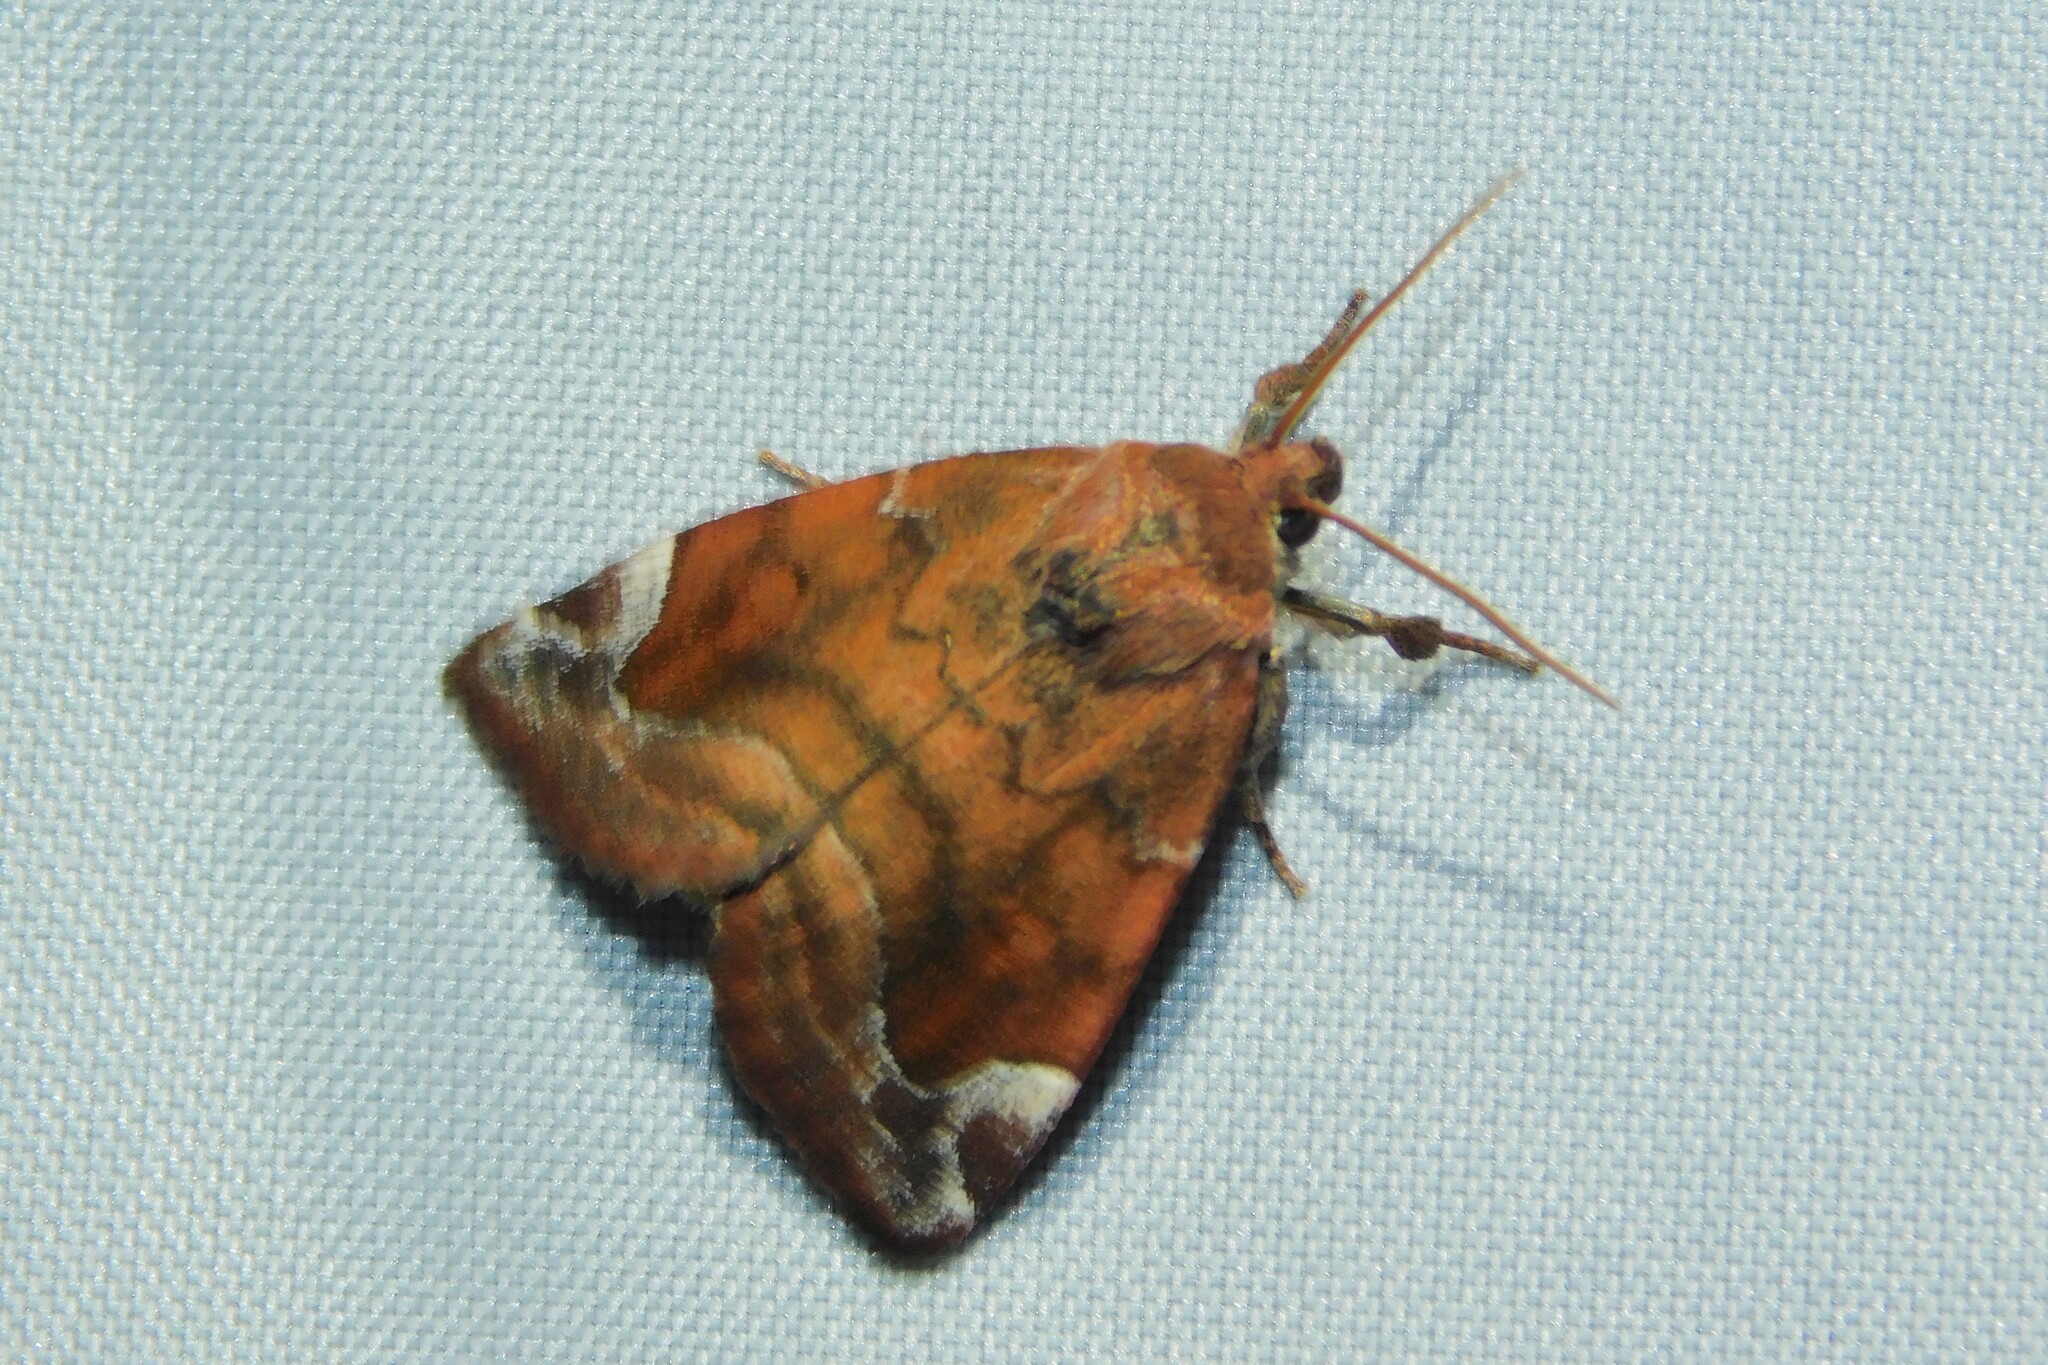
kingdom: Animalia
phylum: Arthropoda
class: Insecta
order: Lepidoptera
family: Noctuidae
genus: Cosmia
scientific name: Cosmia pyralina
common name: Lunar-spotted pinion
